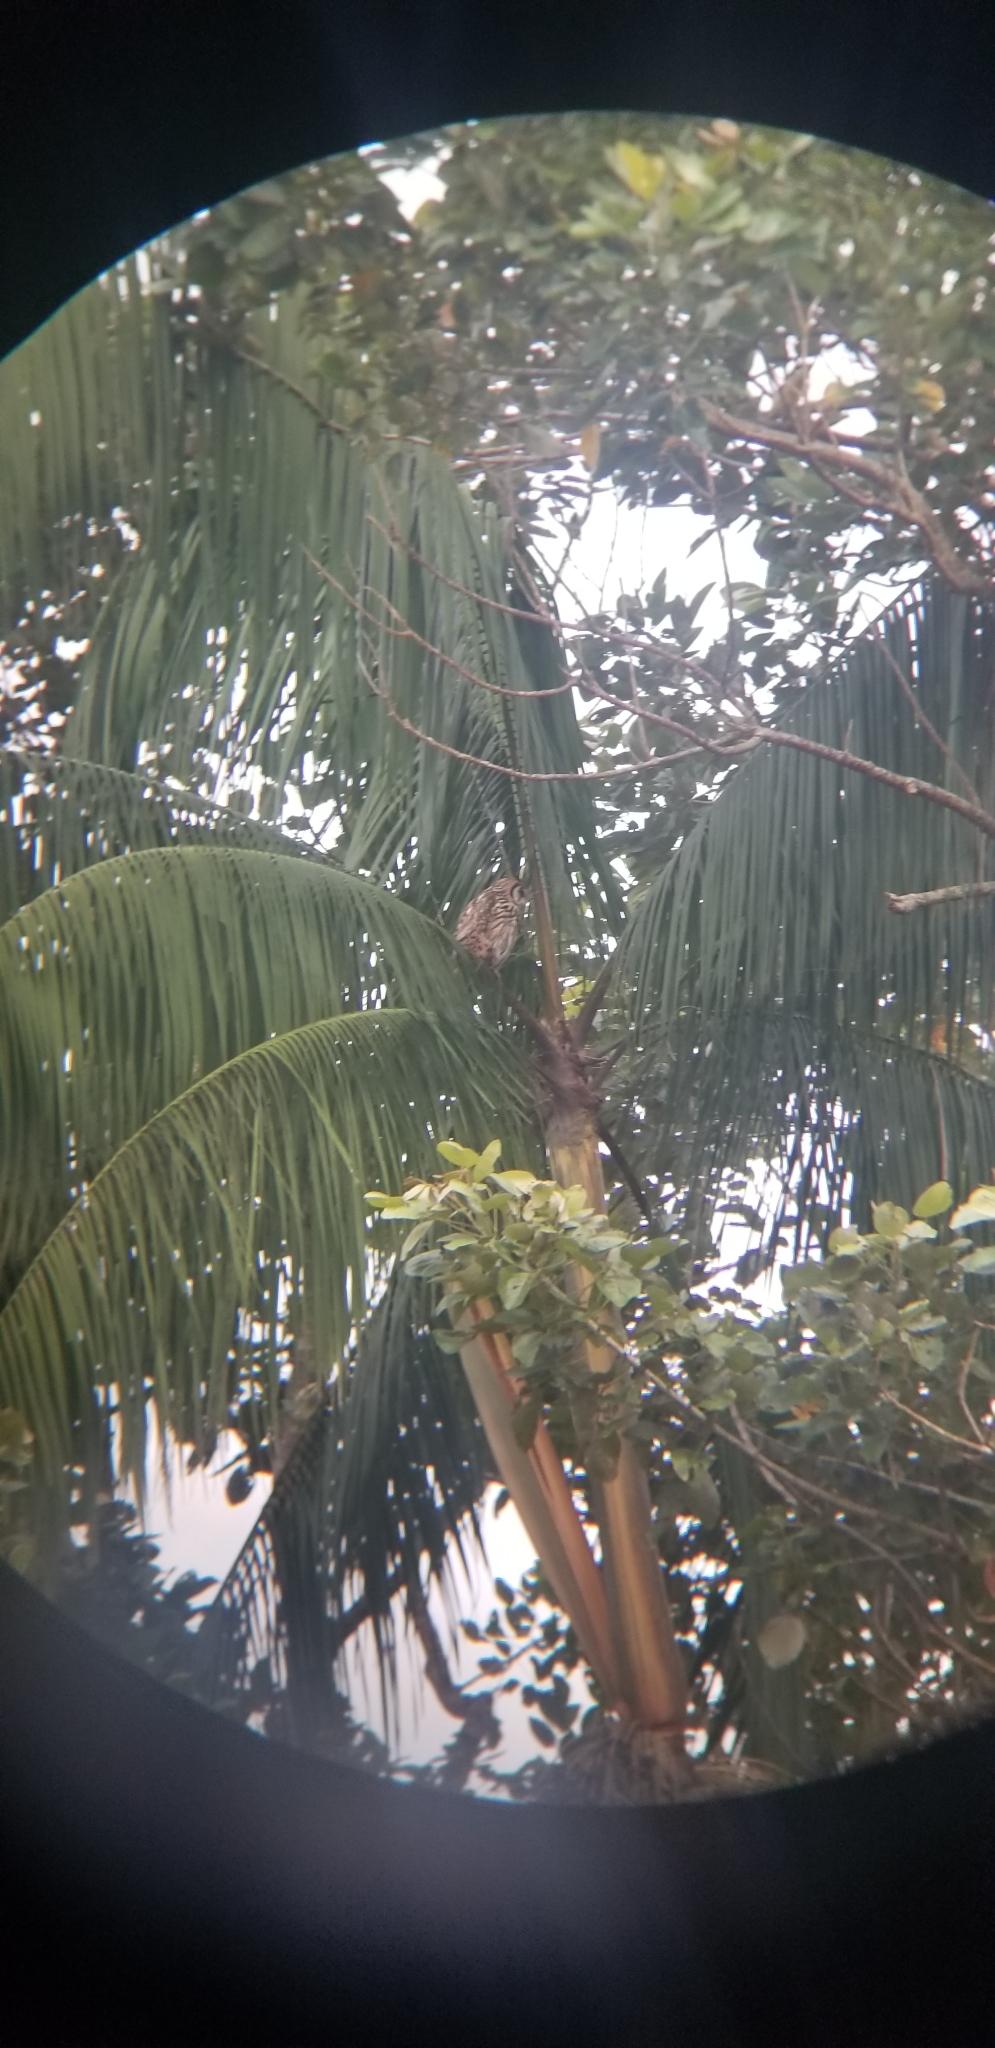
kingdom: Animalia
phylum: Chordata
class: Aves
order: Strigiformes
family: Strigidae
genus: Pseudoscops
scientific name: Pseudoscops clamator
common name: Striped owl
